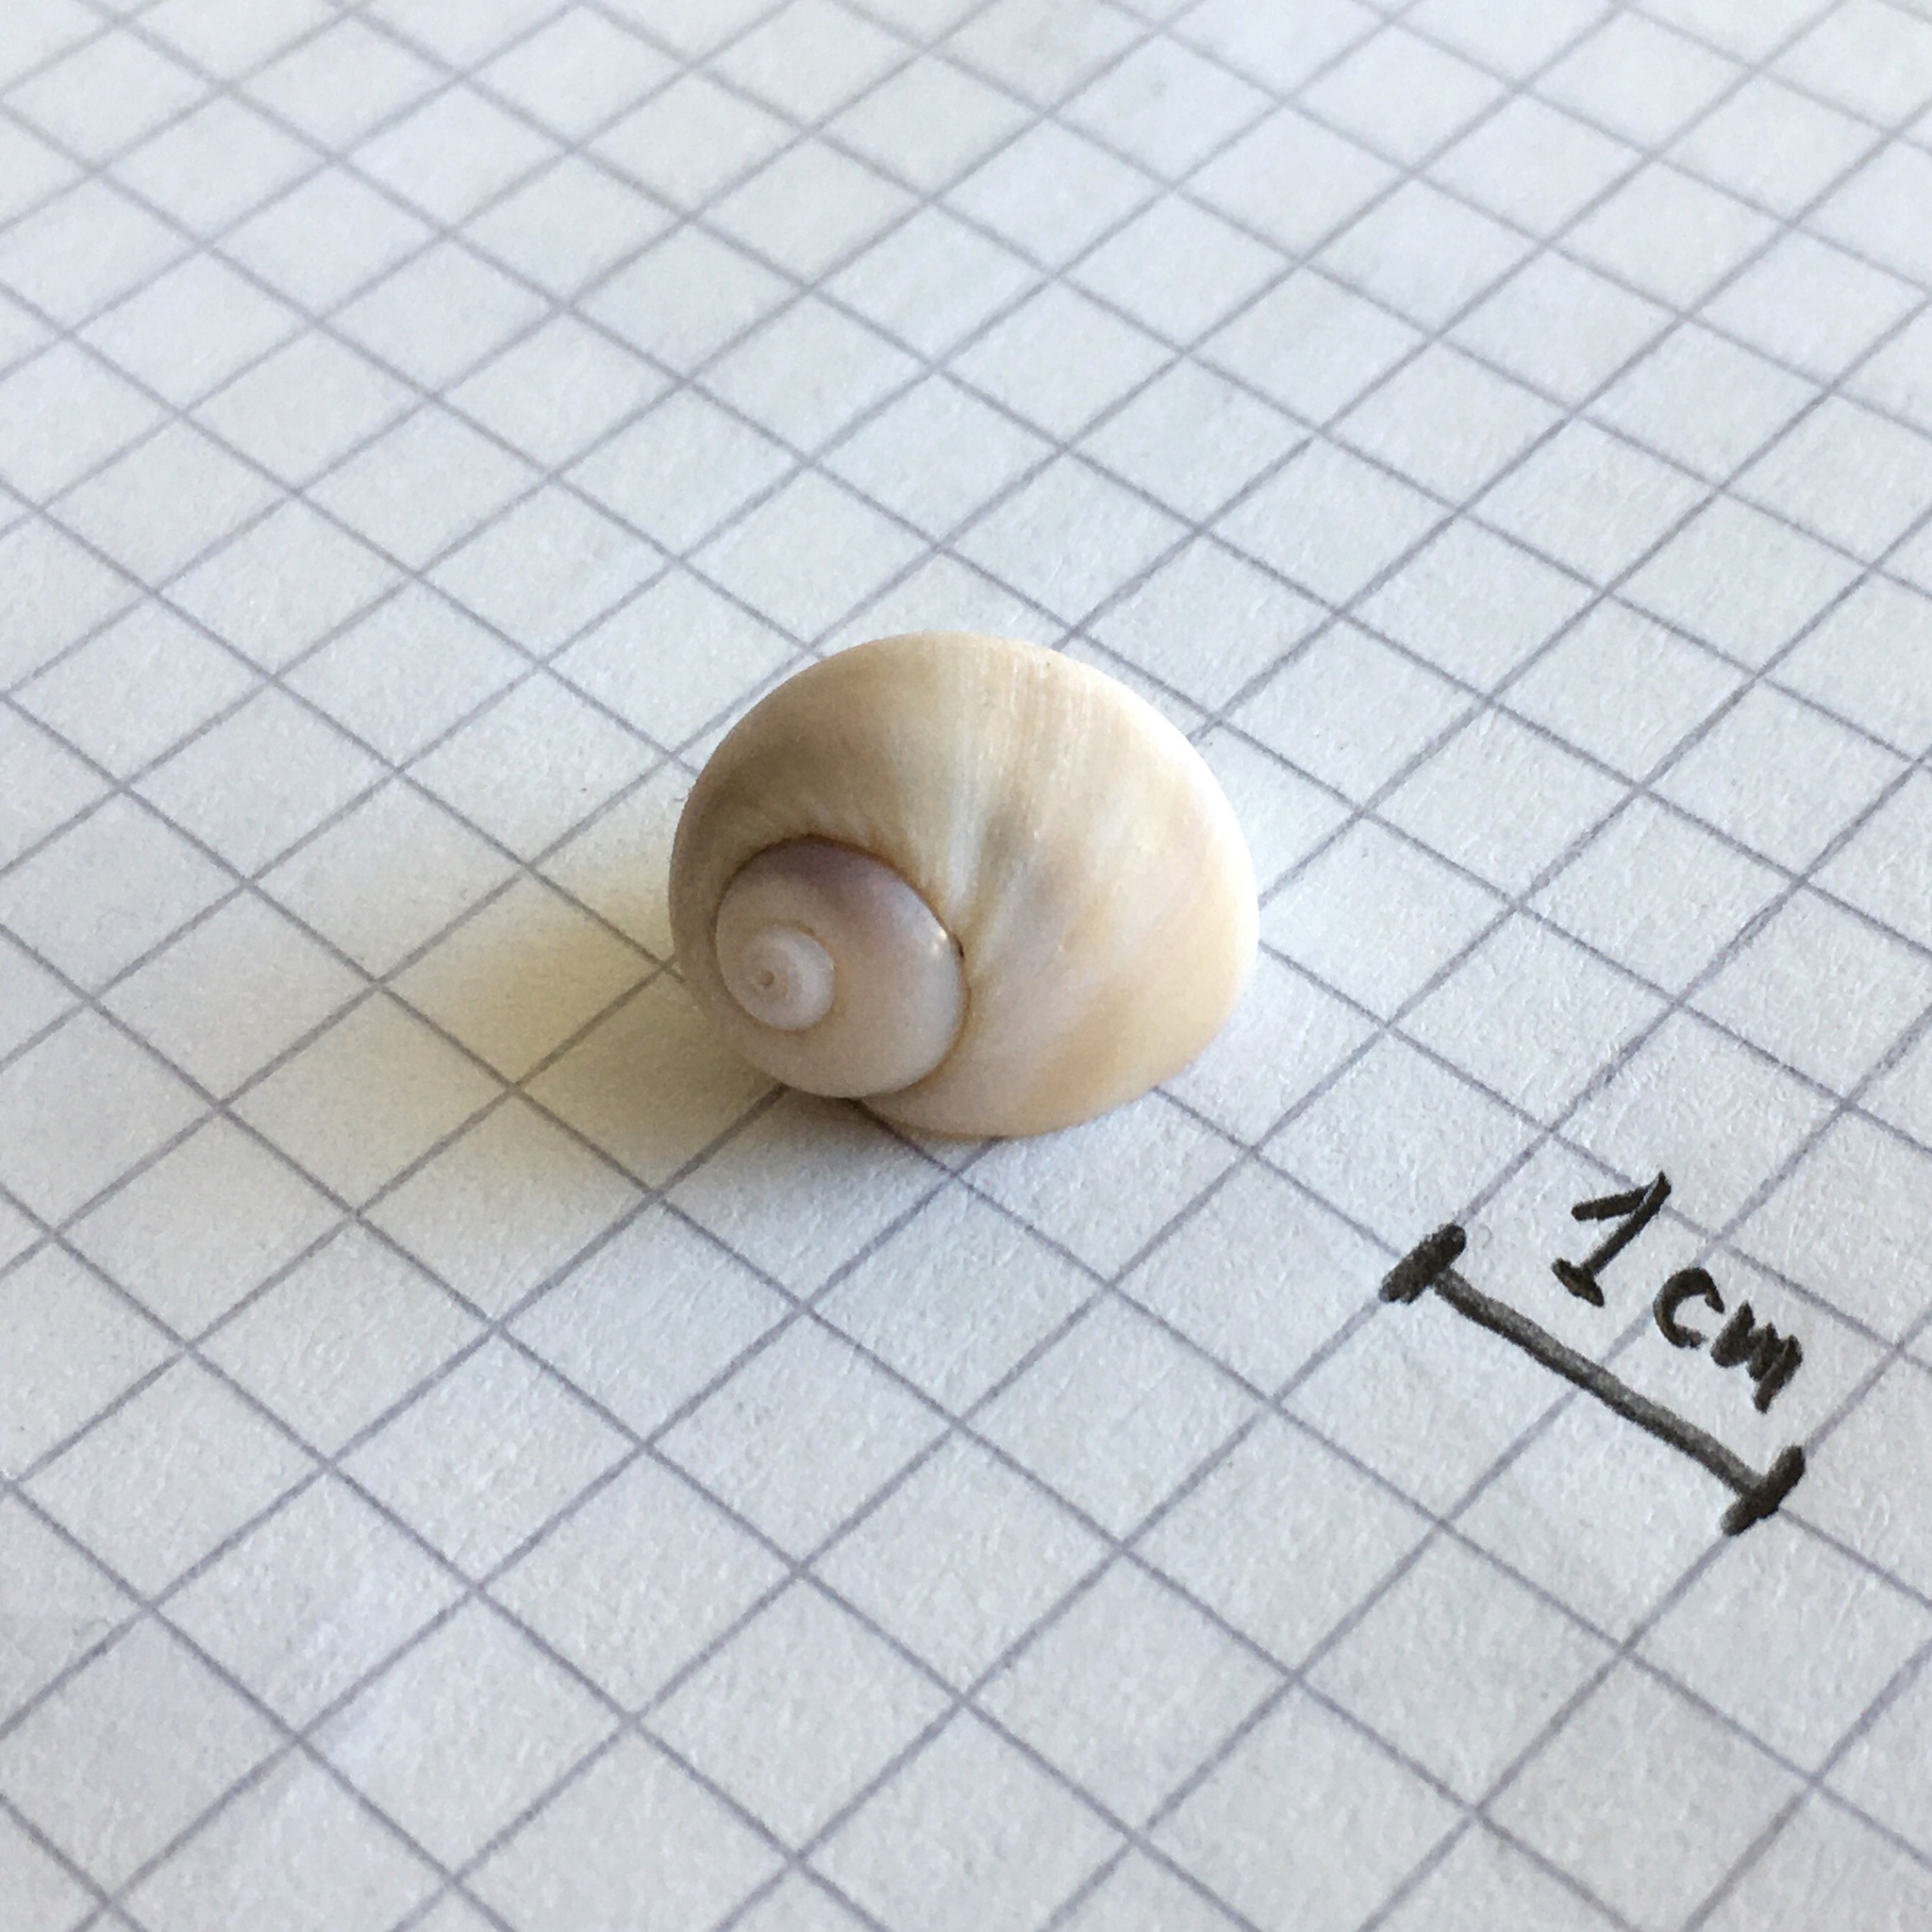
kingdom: Animalia
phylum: Mollusca
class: Gastropoda
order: Littorinimorpha
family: Naticidae
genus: Notocochlis
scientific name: Notocochlis isabelleana
